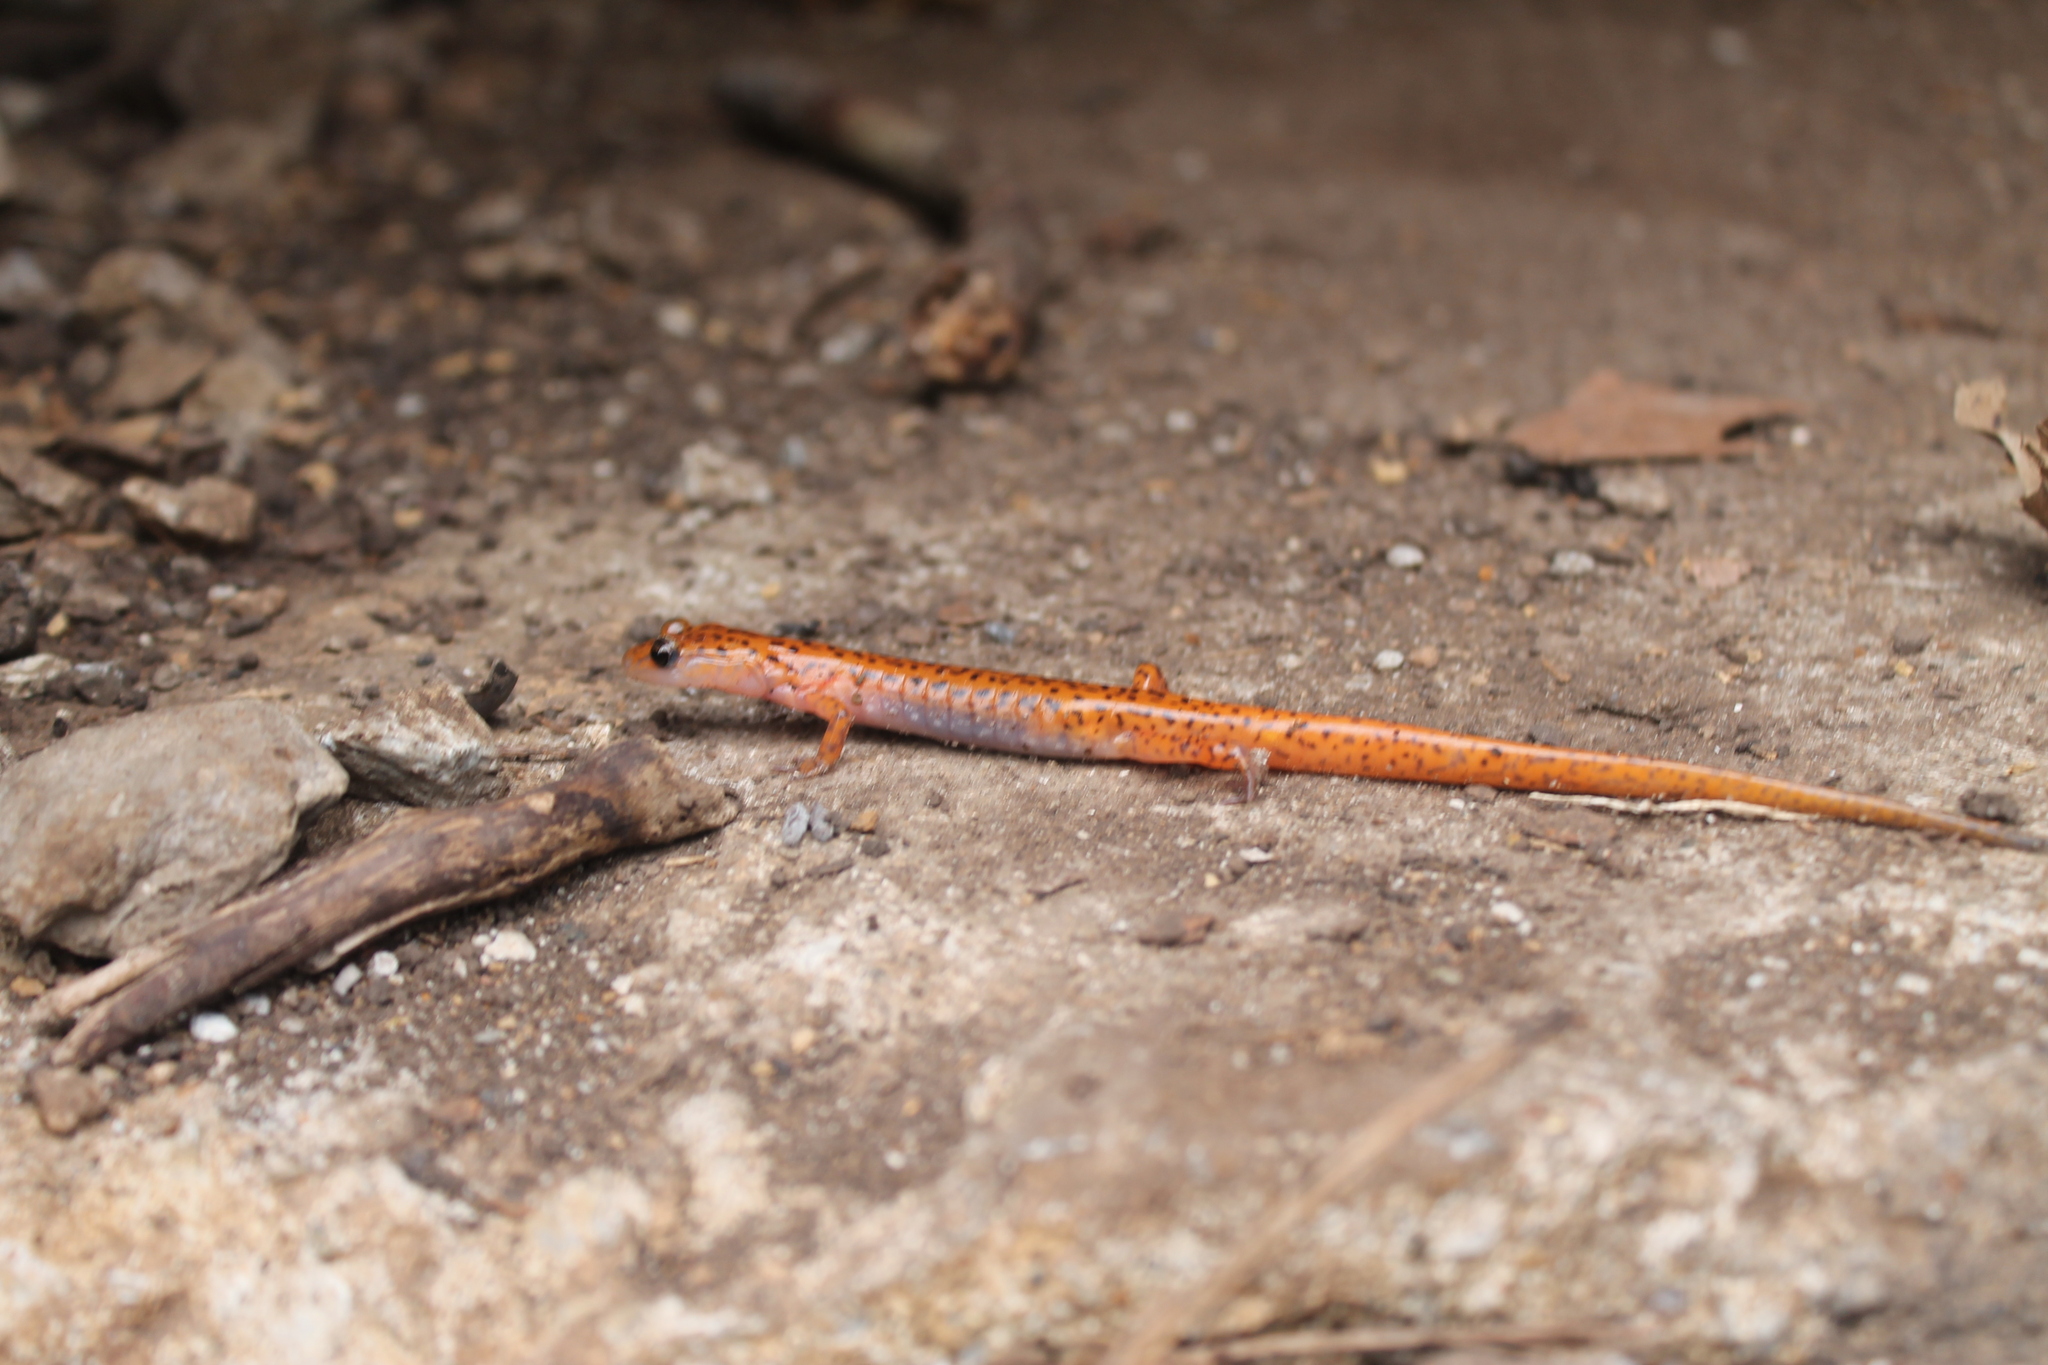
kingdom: Animalia
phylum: Chordata
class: Amphibia
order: Caudata
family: Plethodontidae
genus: Eurycea
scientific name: Eurycea lucifuga
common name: Cave salamander
